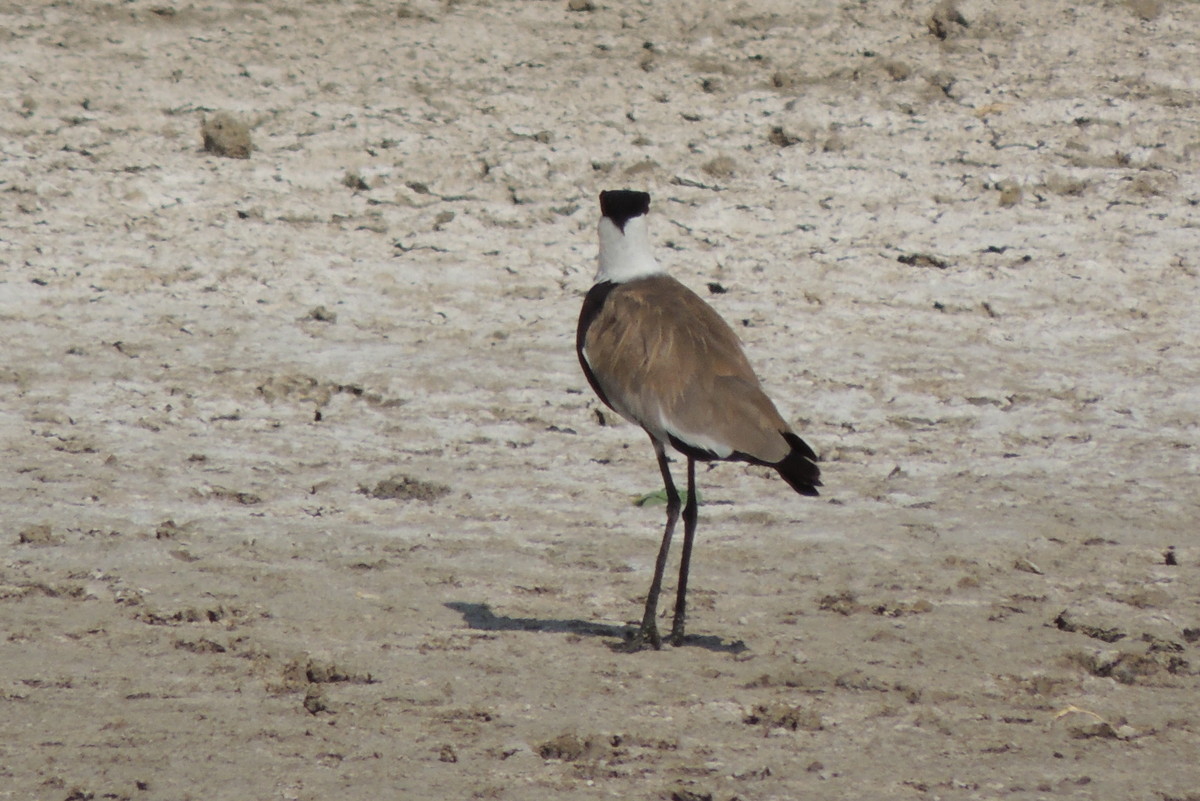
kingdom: Animalia
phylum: Chordata
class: Aves
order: Charadriiformes
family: Charadriidae
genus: Vanellus
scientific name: Vanellus spinosus
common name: Spur-winged lapwing
